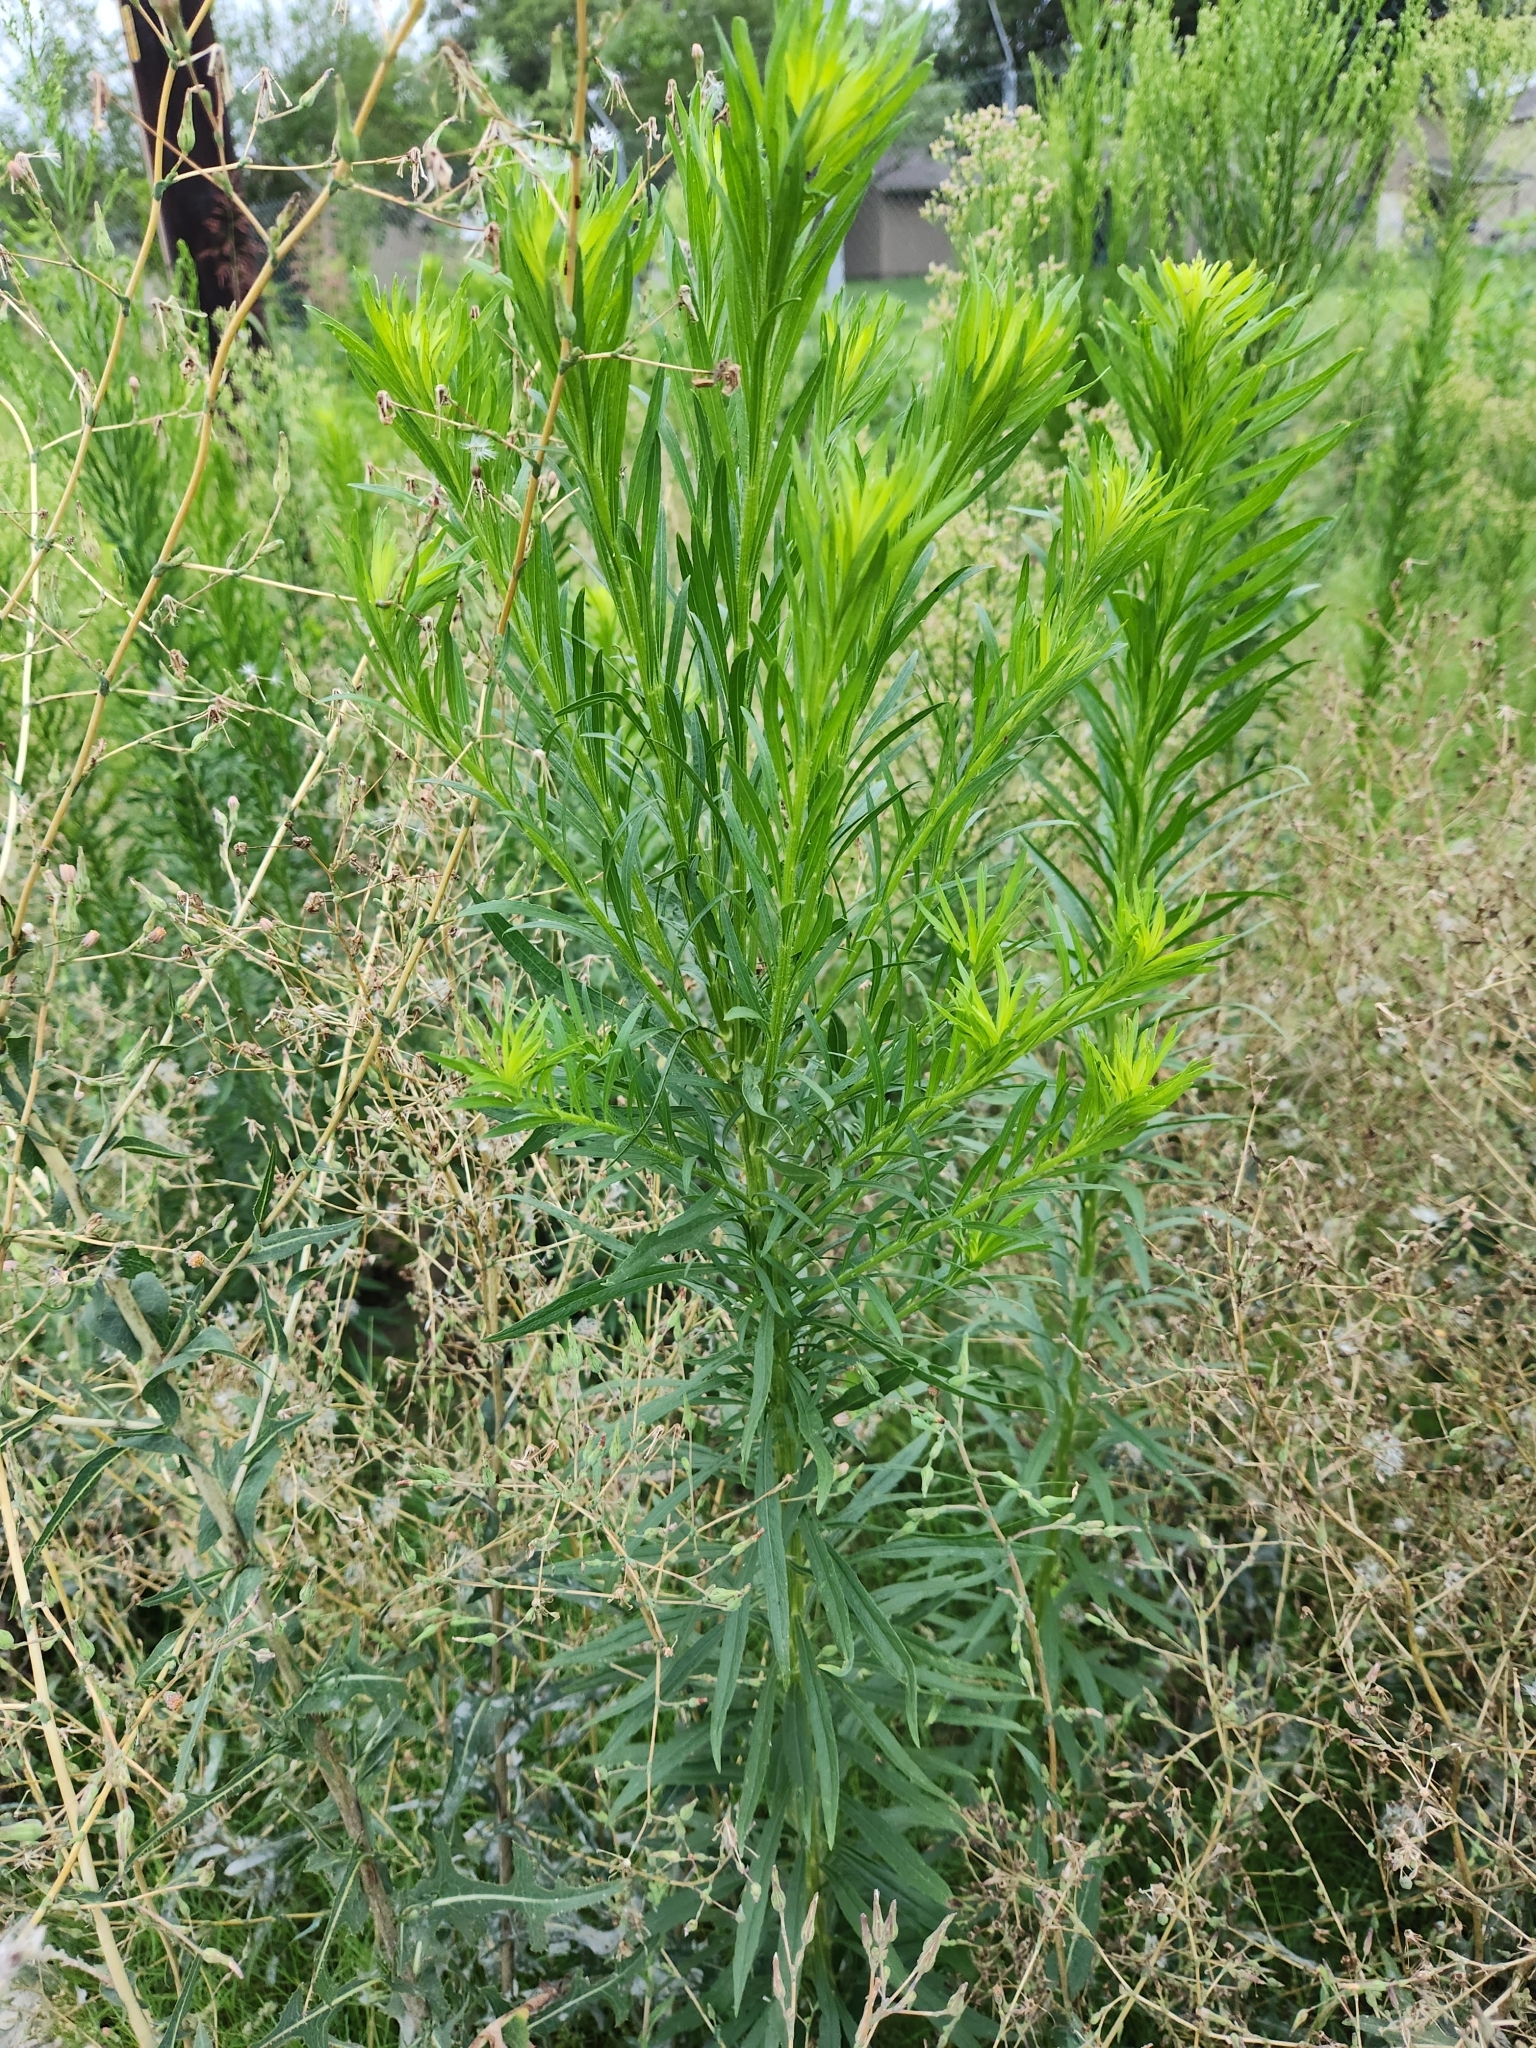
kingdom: Plantae
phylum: Tracheophyta
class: Magnoliopsida
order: Asterales
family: Asteraceae
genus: Erigeron
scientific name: Erigeron canadensis
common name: Canadian fleabane
